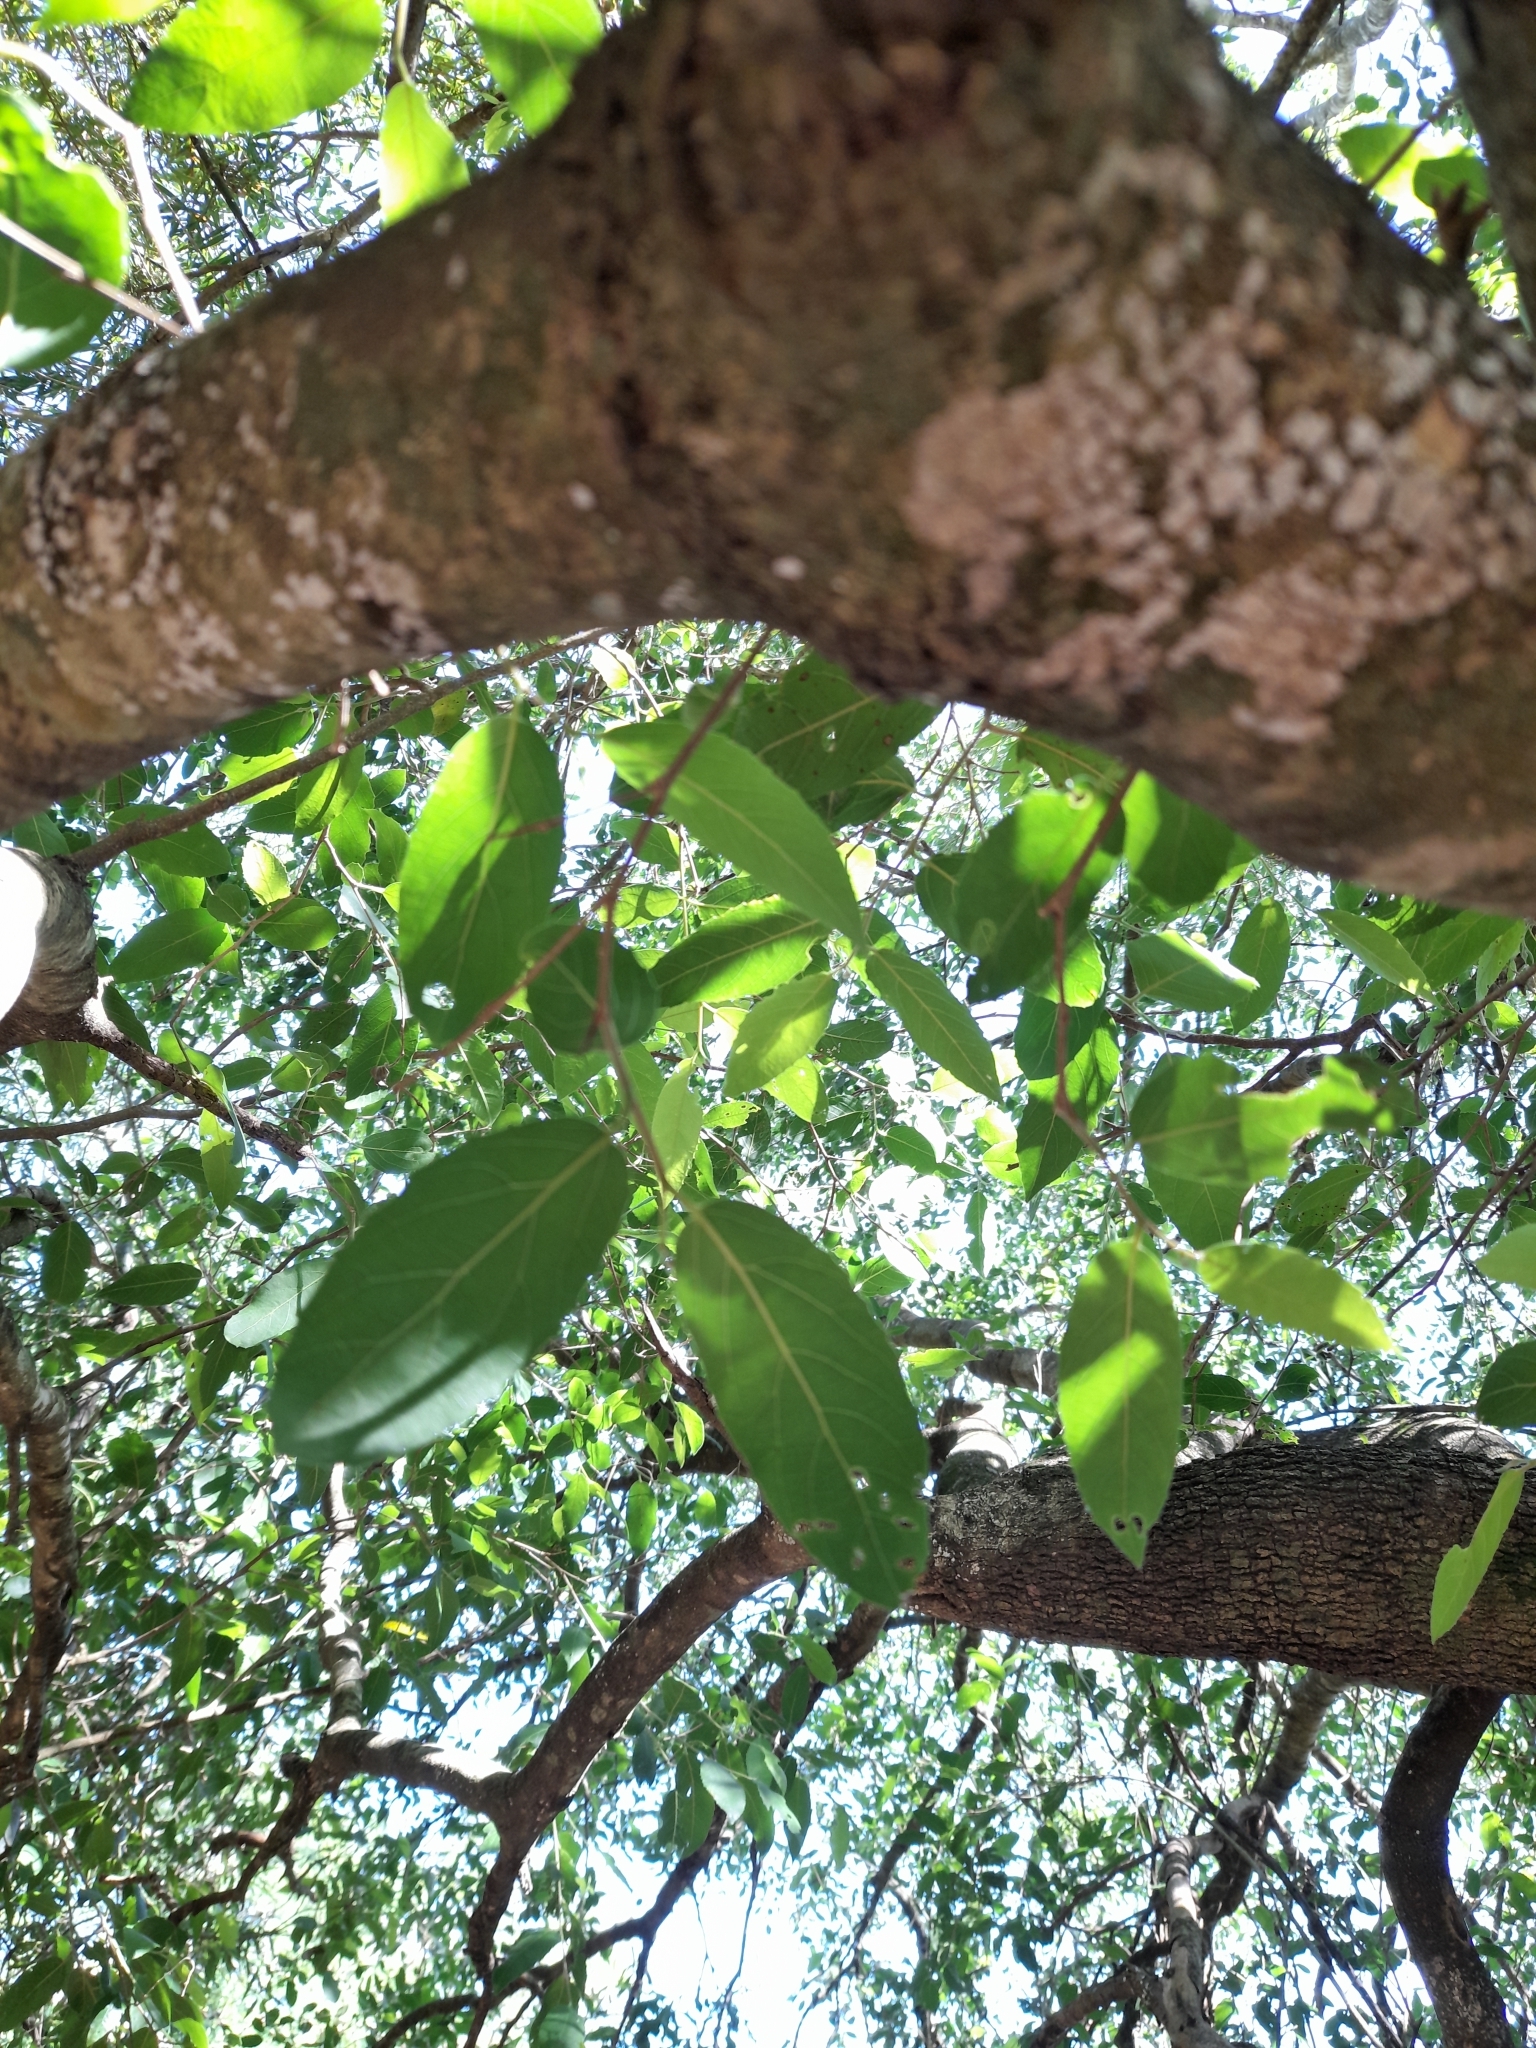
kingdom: Plantae
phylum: Tracheophyta
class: Magnoliopsida
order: Malpighiales
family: Salicaceae
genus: Banara
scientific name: Banara arguta
